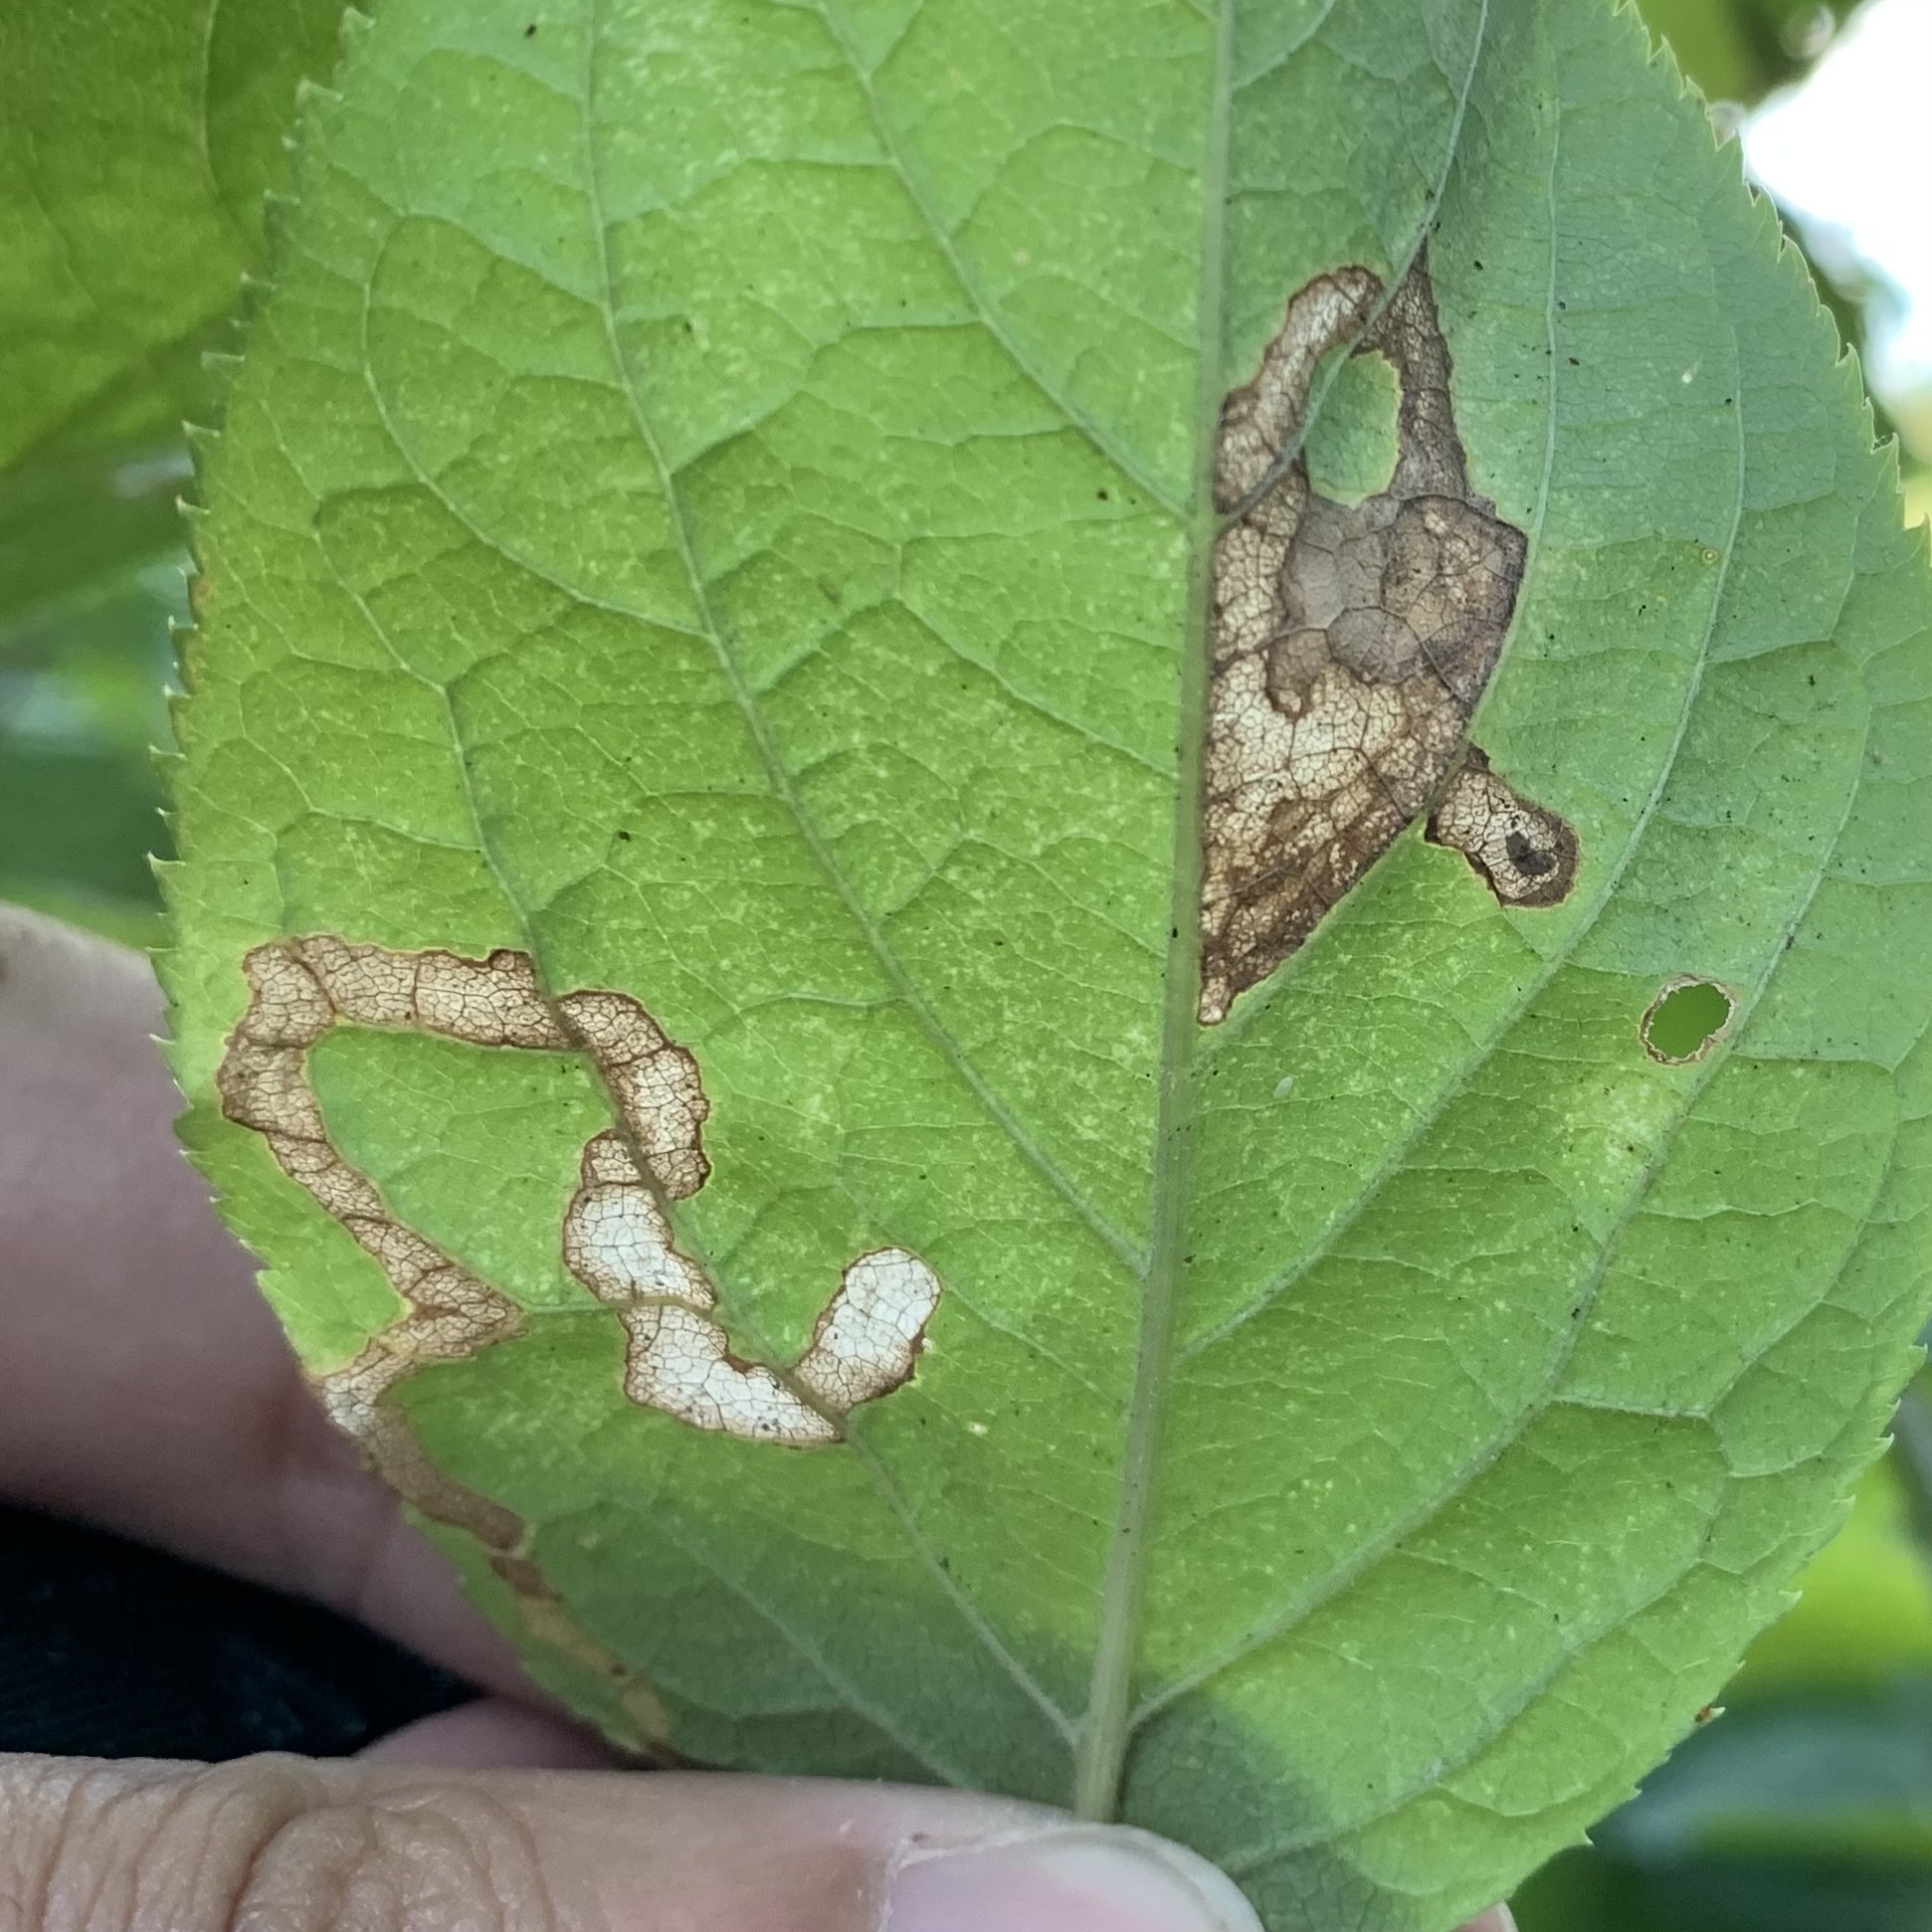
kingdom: Animalia
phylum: Arthropoda
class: Insecta
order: Diptera
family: Agromyzidae
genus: Phytomyza
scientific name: Phytomyza aralivora
